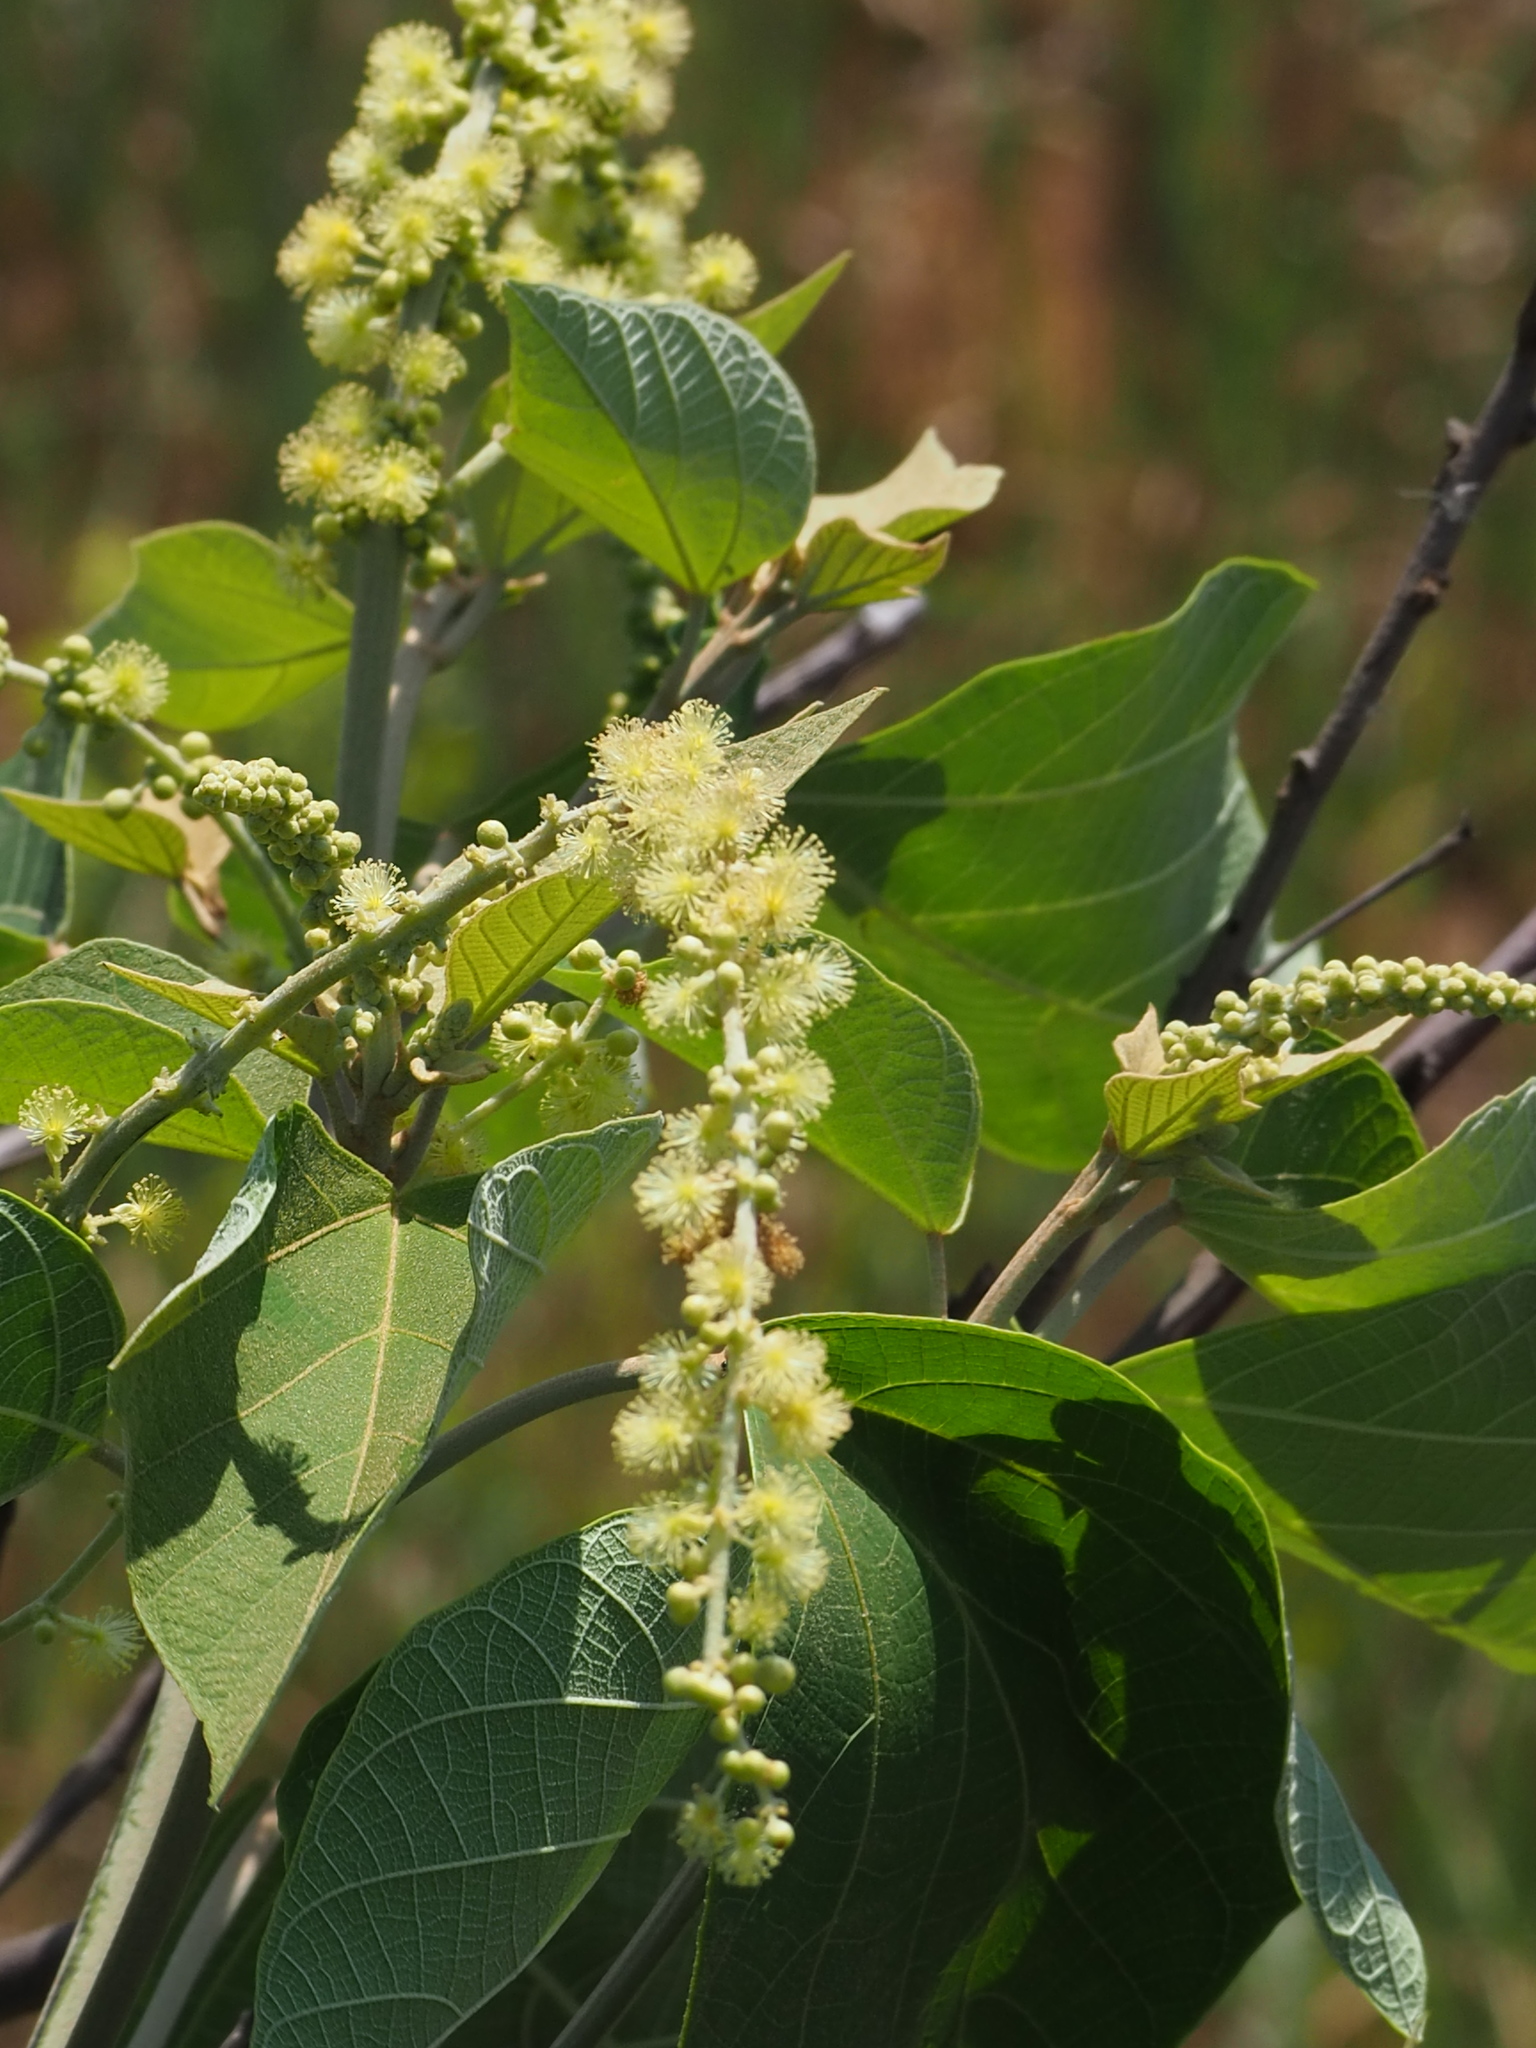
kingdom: Plantae
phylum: Tracheophyta
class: Magnoliopsida
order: Malpighiales
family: Euphorbiaceae
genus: Mallotus
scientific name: Mallotus japonicus
